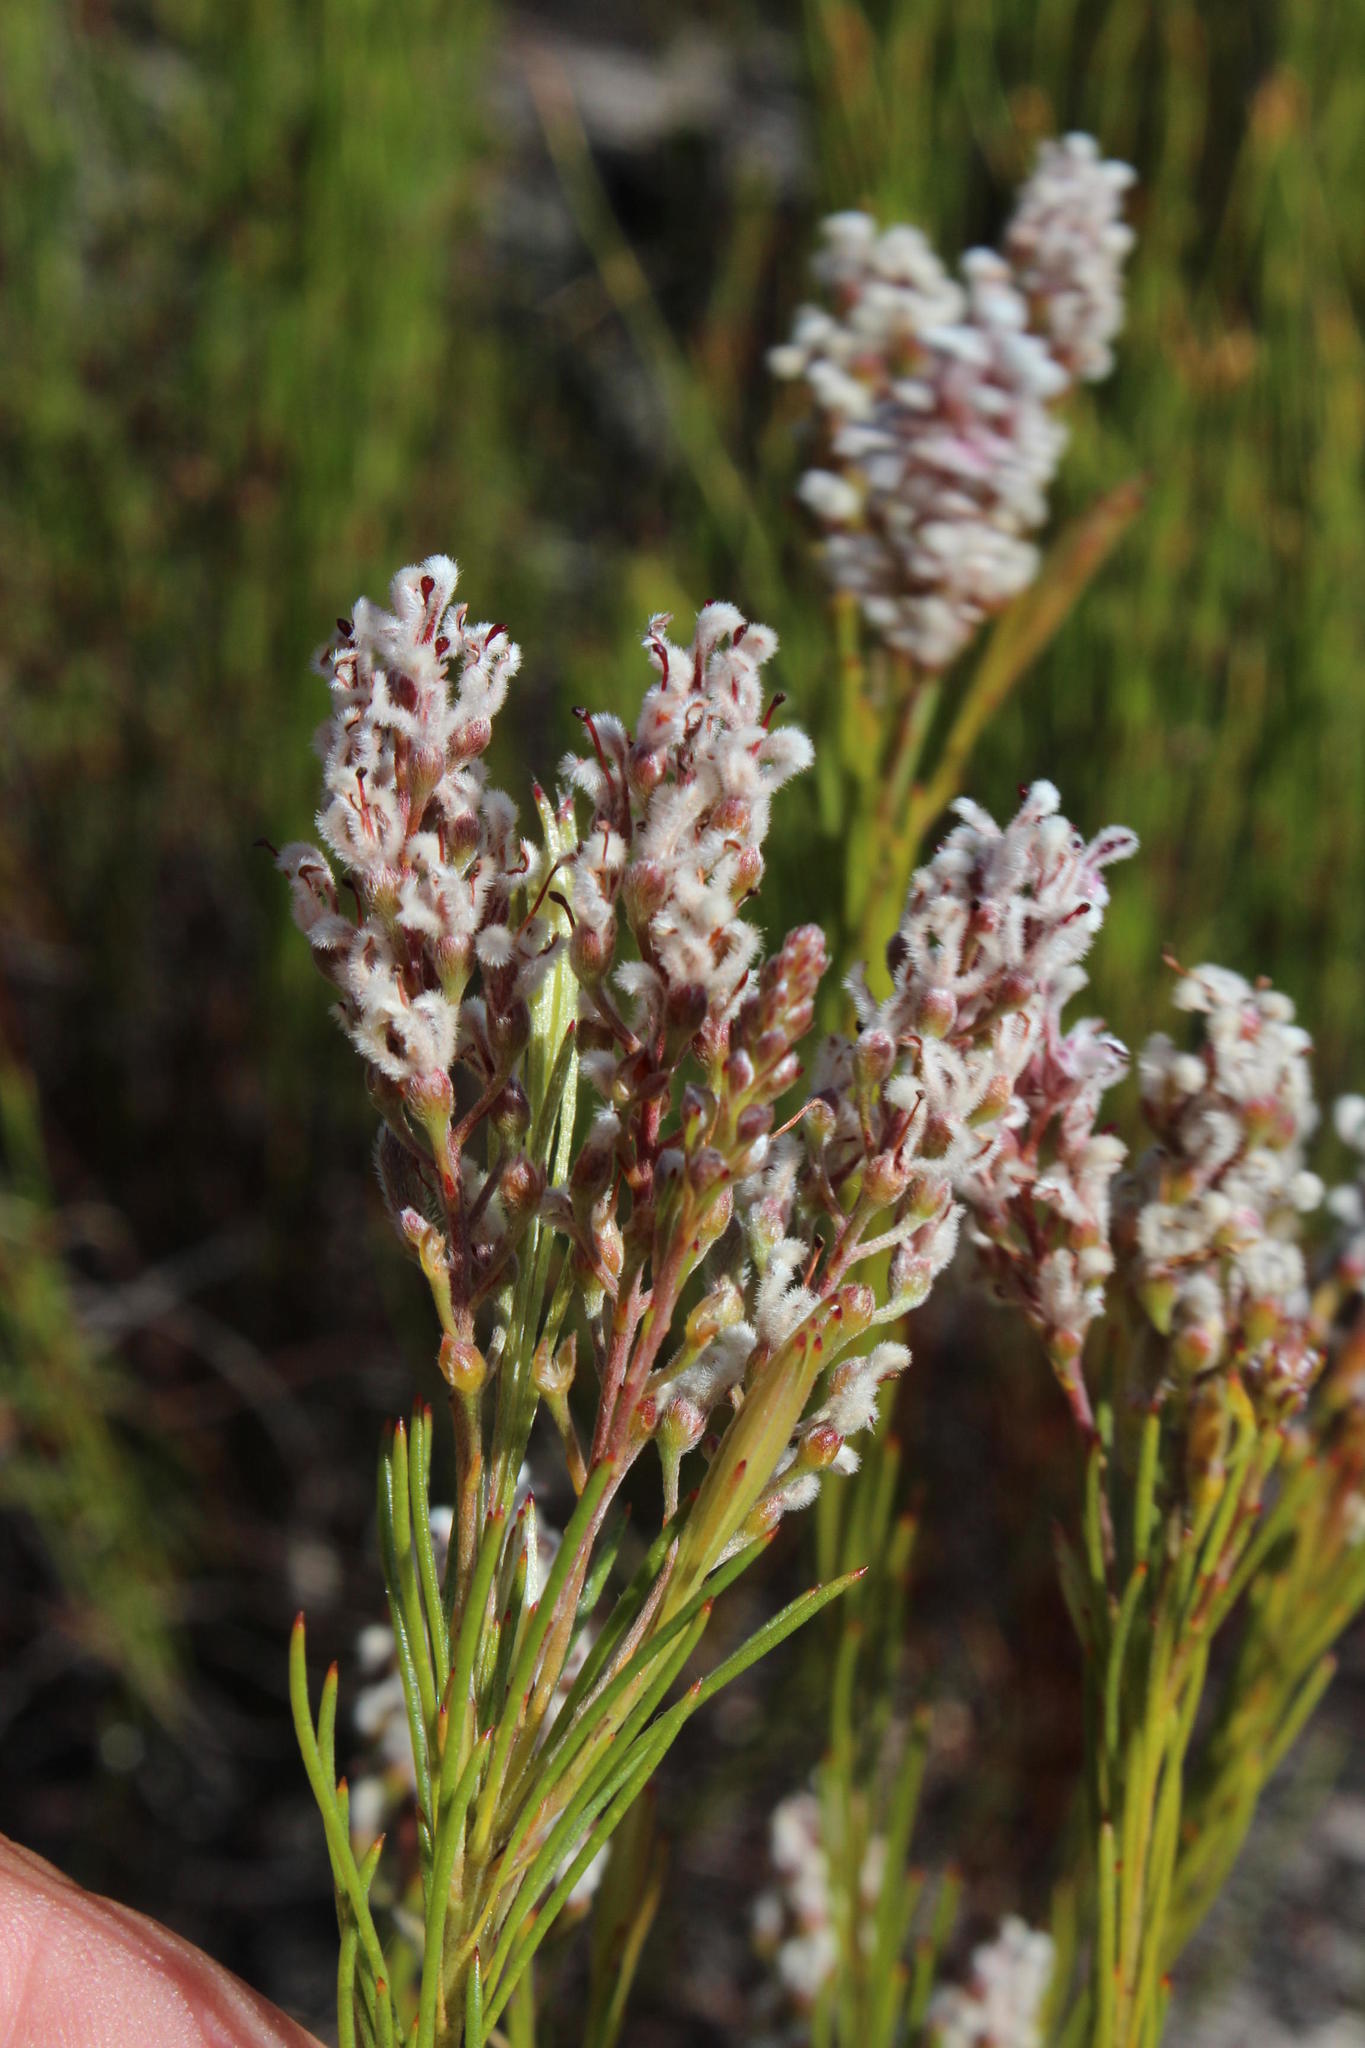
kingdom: Plantae
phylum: Tracheophyta
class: Magnoliopsida
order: Proteales
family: Proteaceae
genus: Spatalla
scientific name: Spatalla racemosa
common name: Lax-stalked spoon
